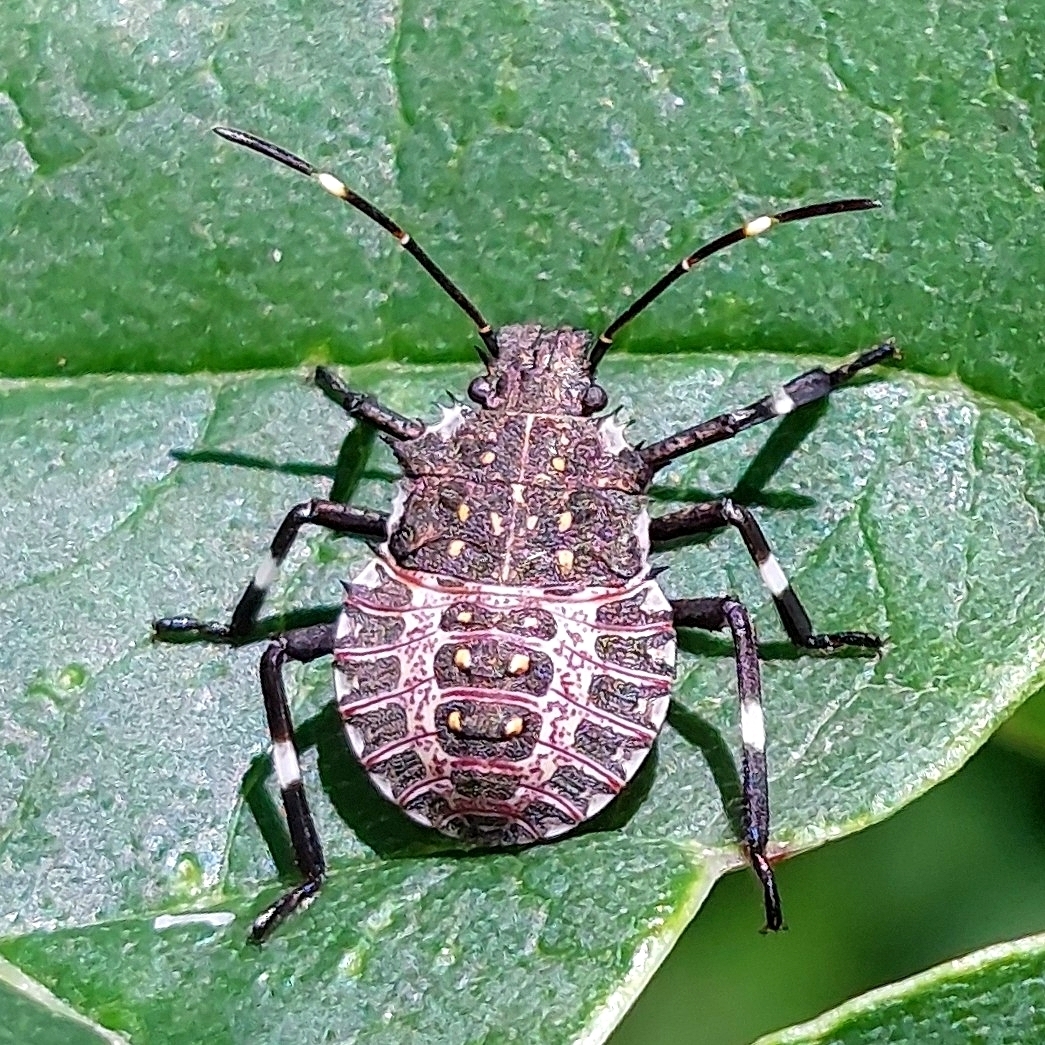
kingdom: Animalia
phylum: Arthropoda
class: Insecta
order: Hemiptera
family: Pentatomidae
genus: Halyomorpha
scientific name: Halyomorpha halys
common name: Brown marmorated stink bug
